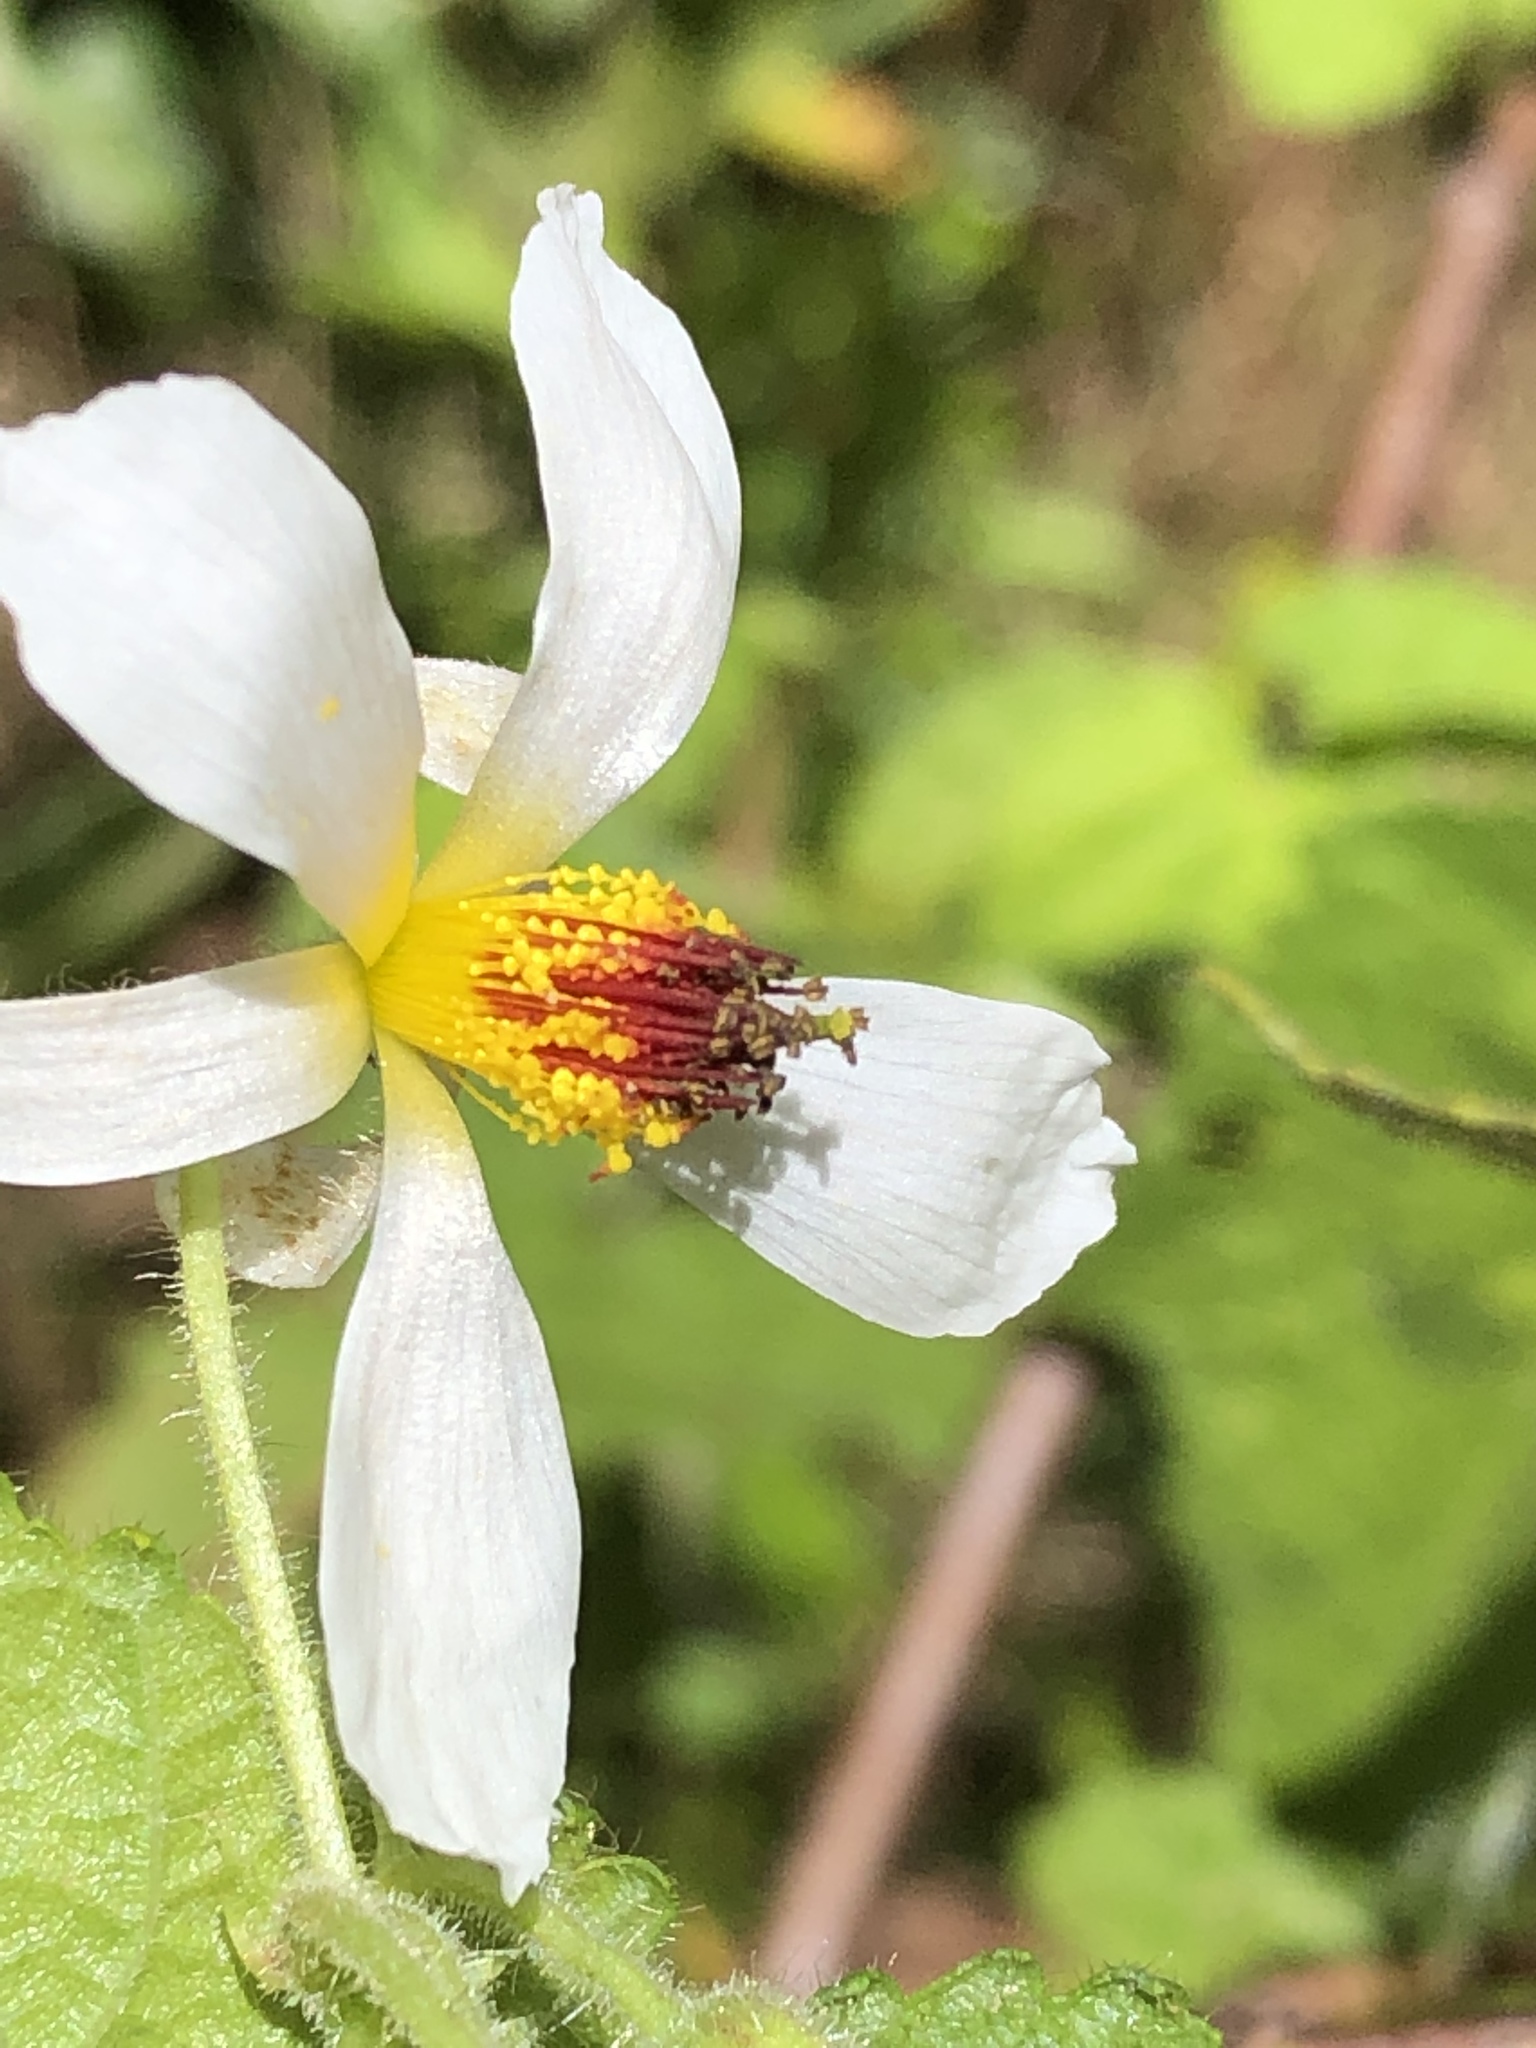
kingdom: Plantae
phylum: Tracheophyta
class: Magnoliopsida
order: Malvales
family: Malvaceae
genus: Sparrmannia
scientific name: Sparrmannia africana
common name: African-hemp
